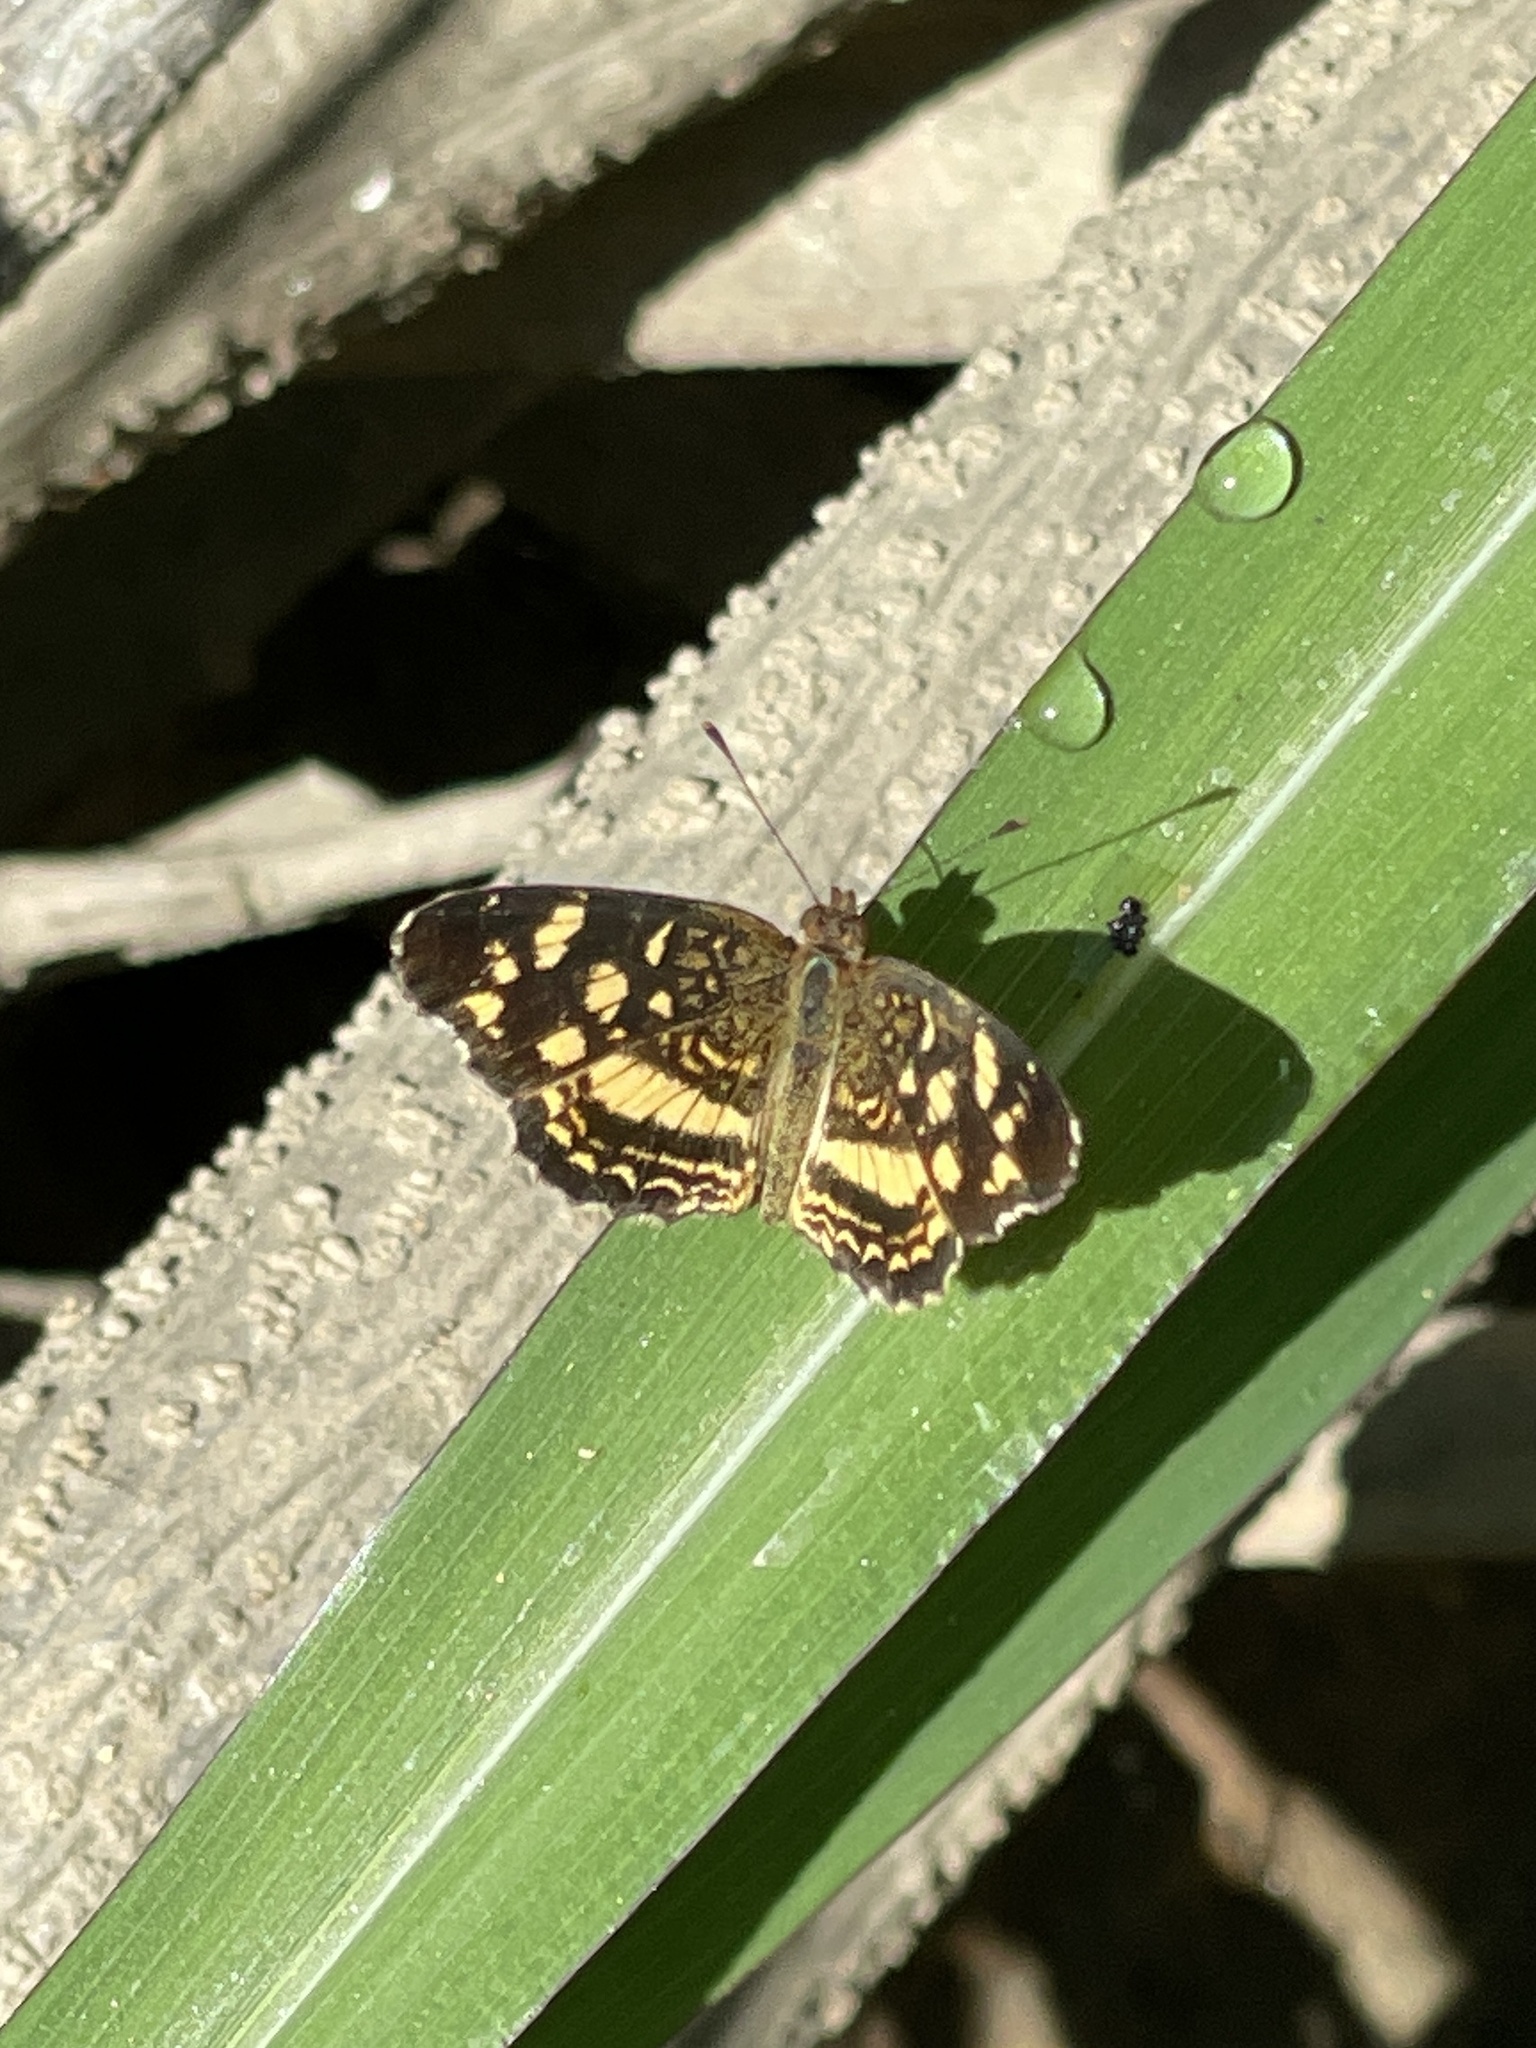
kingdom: Animalia
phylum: Arthropoda
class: Insecta
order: Lepidoptera
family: Nymphalidae
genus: Anthanassa
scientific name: Anthanassa tulcis
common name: Pale-banded crescent
